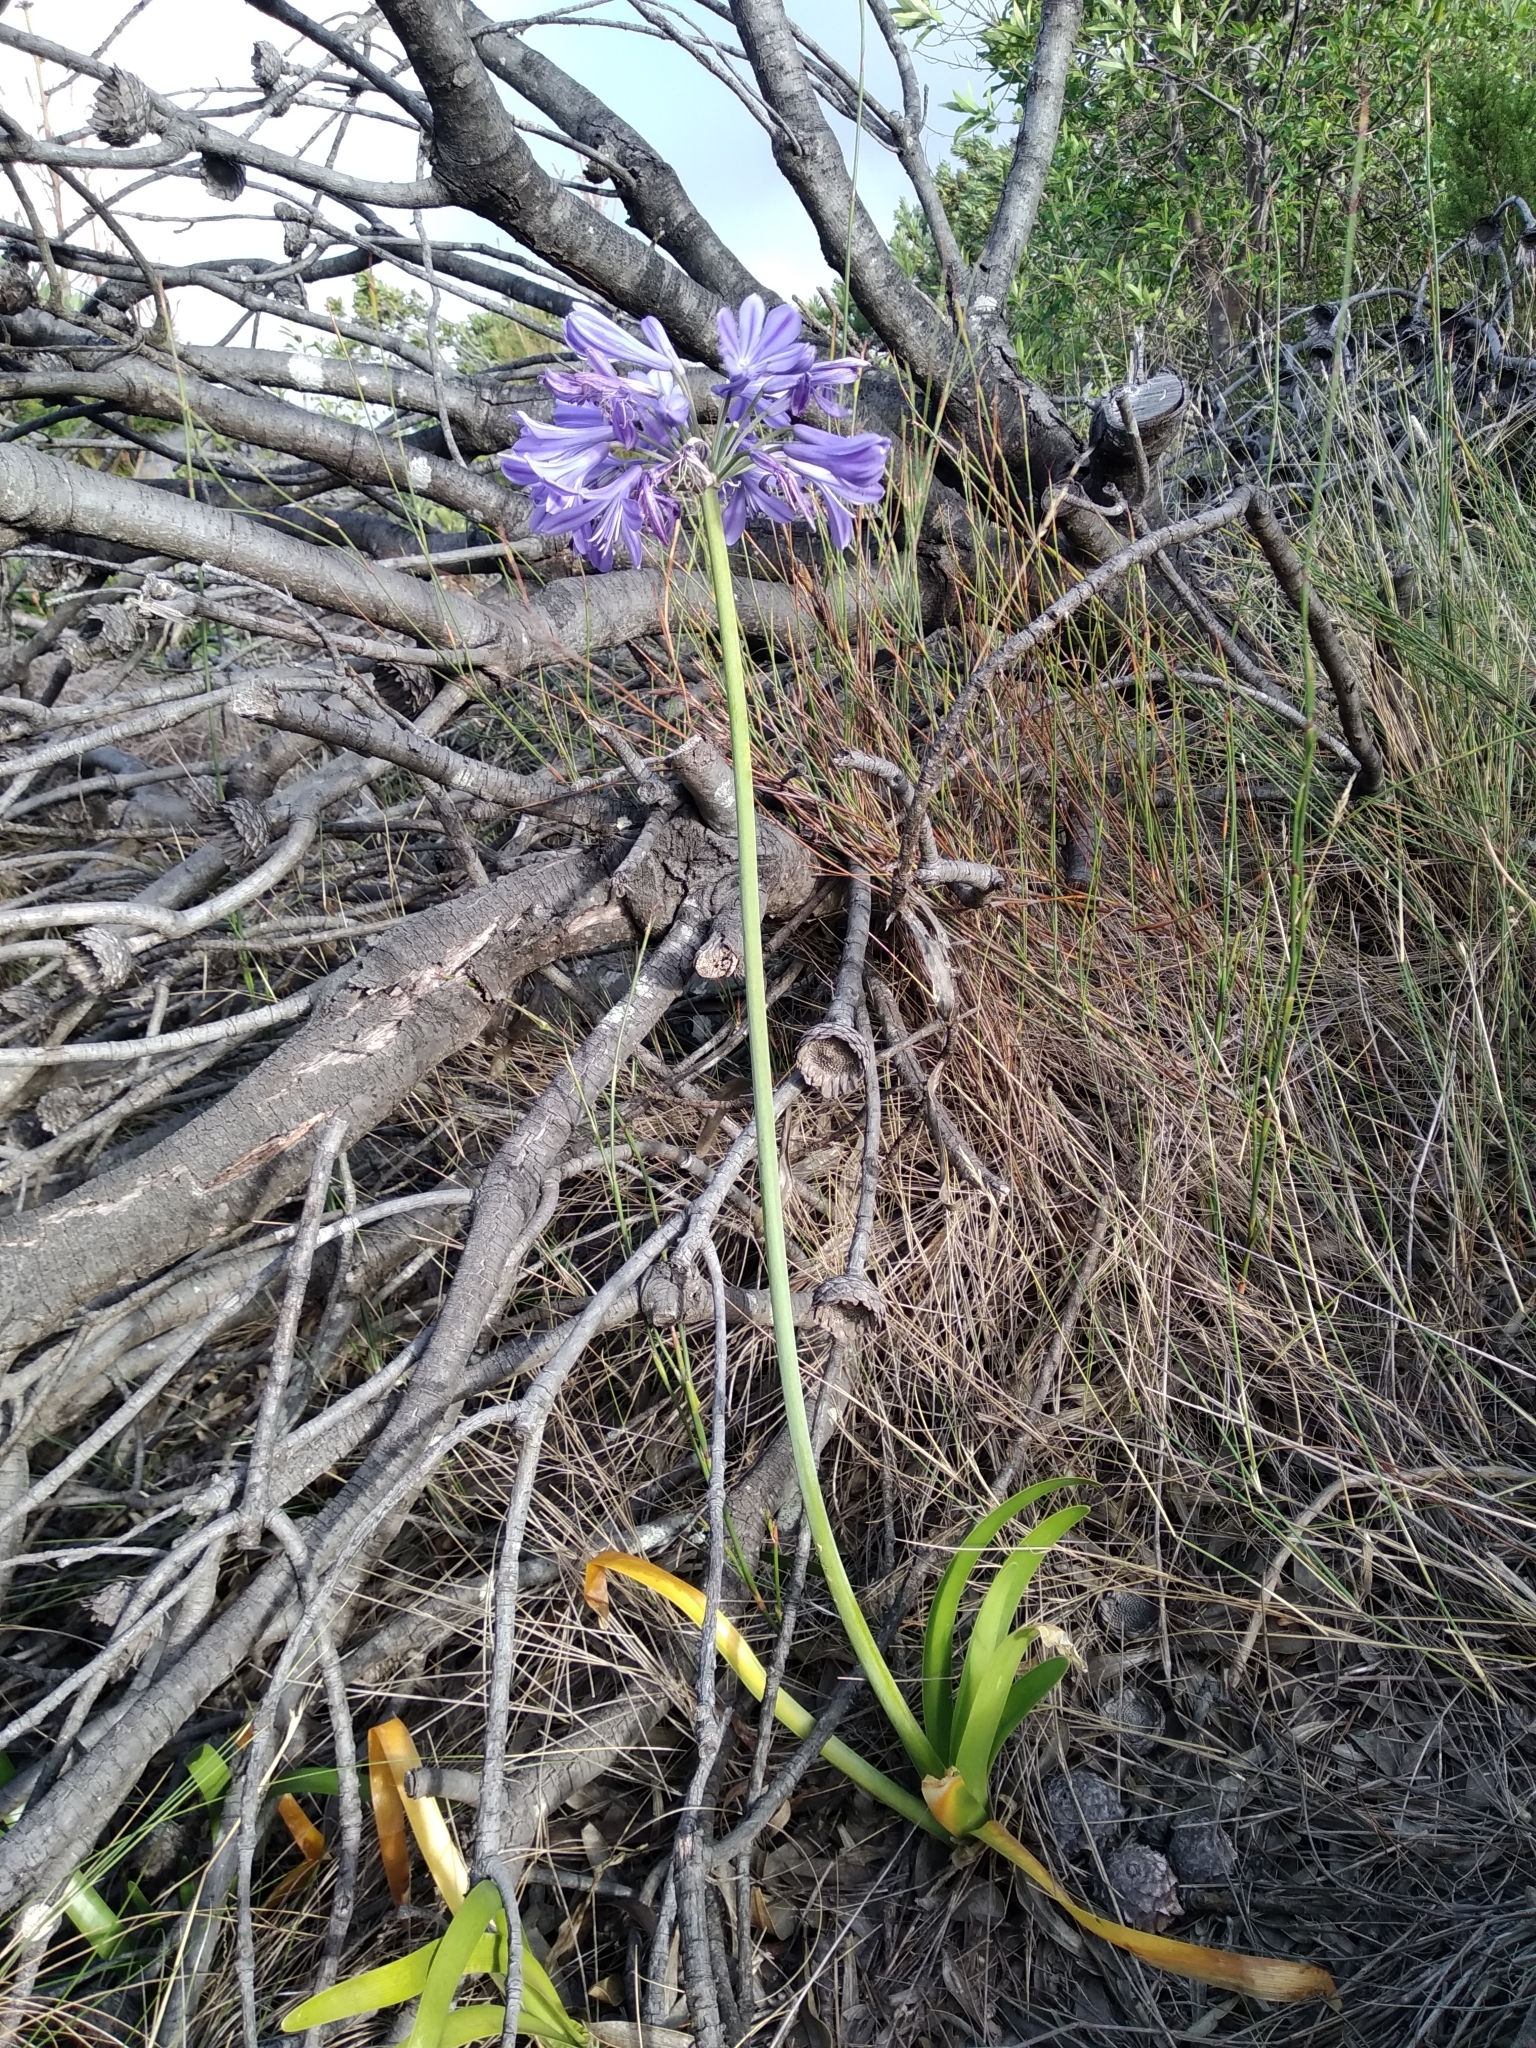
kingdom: Plantae
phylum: Tracheophyta
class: Liliopsida
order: Asparagales
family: Amaryllidaceae
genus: Agapanthus
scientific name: Agapanthus africanus
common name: Lily-of-the-nile
